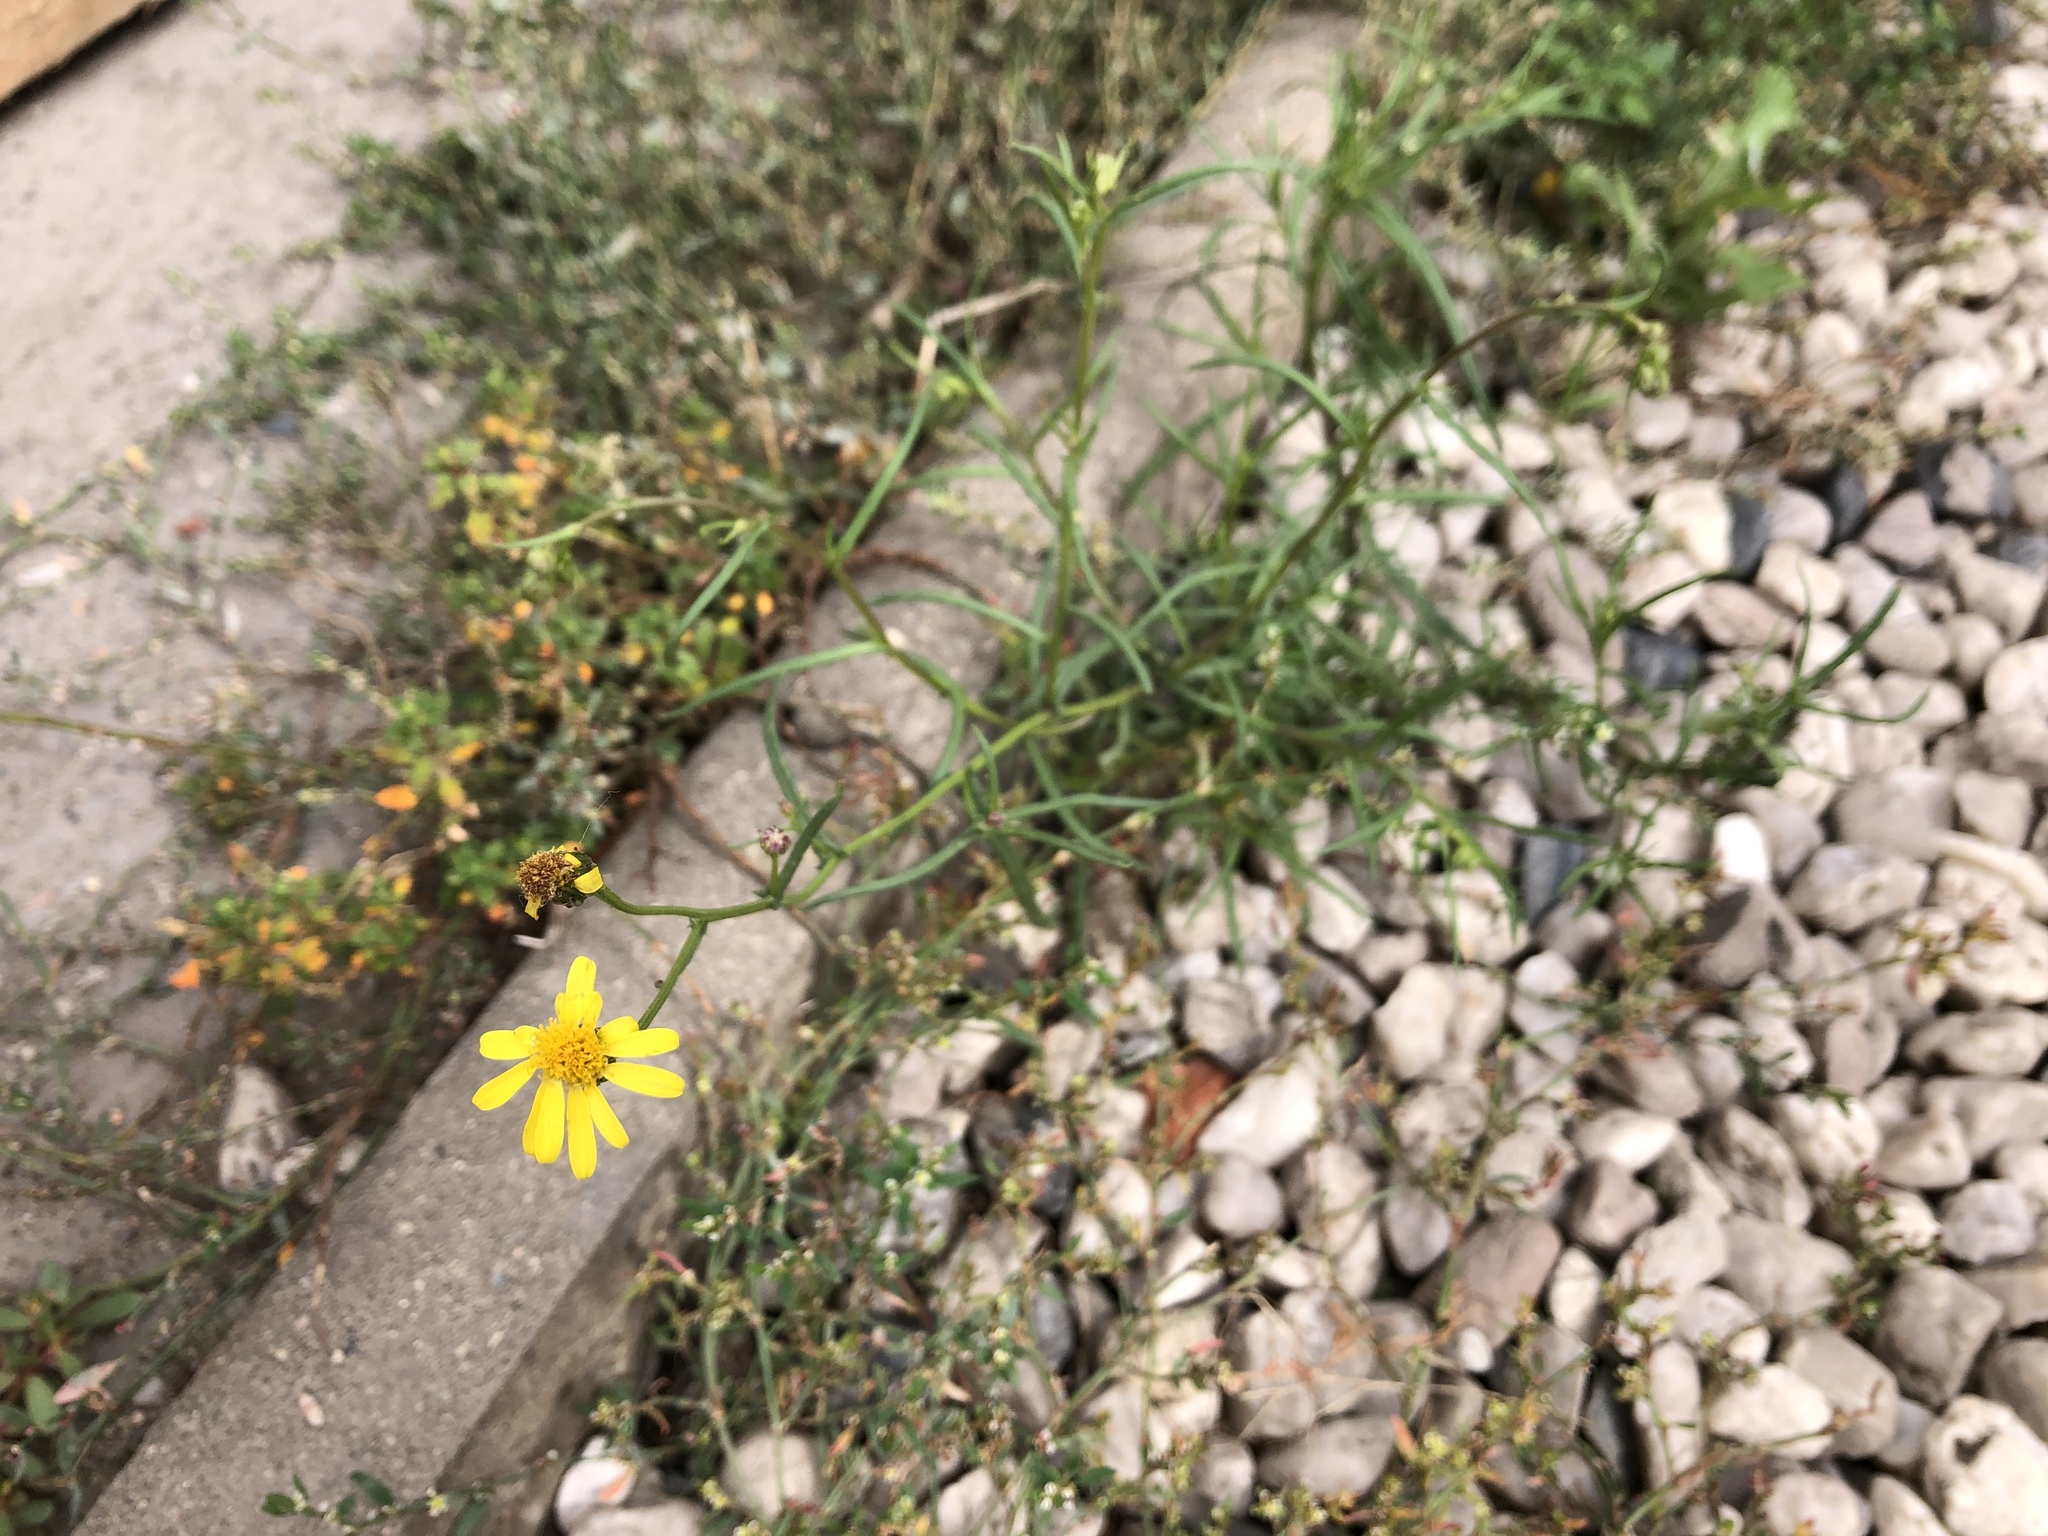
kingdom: Plantae
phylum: Tracheophyta
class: Magnoliopsida
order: Asterales
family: Asteraceae
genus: Senecio
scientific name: Senecio inaequidens
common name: Narrow-leaved ragwort
